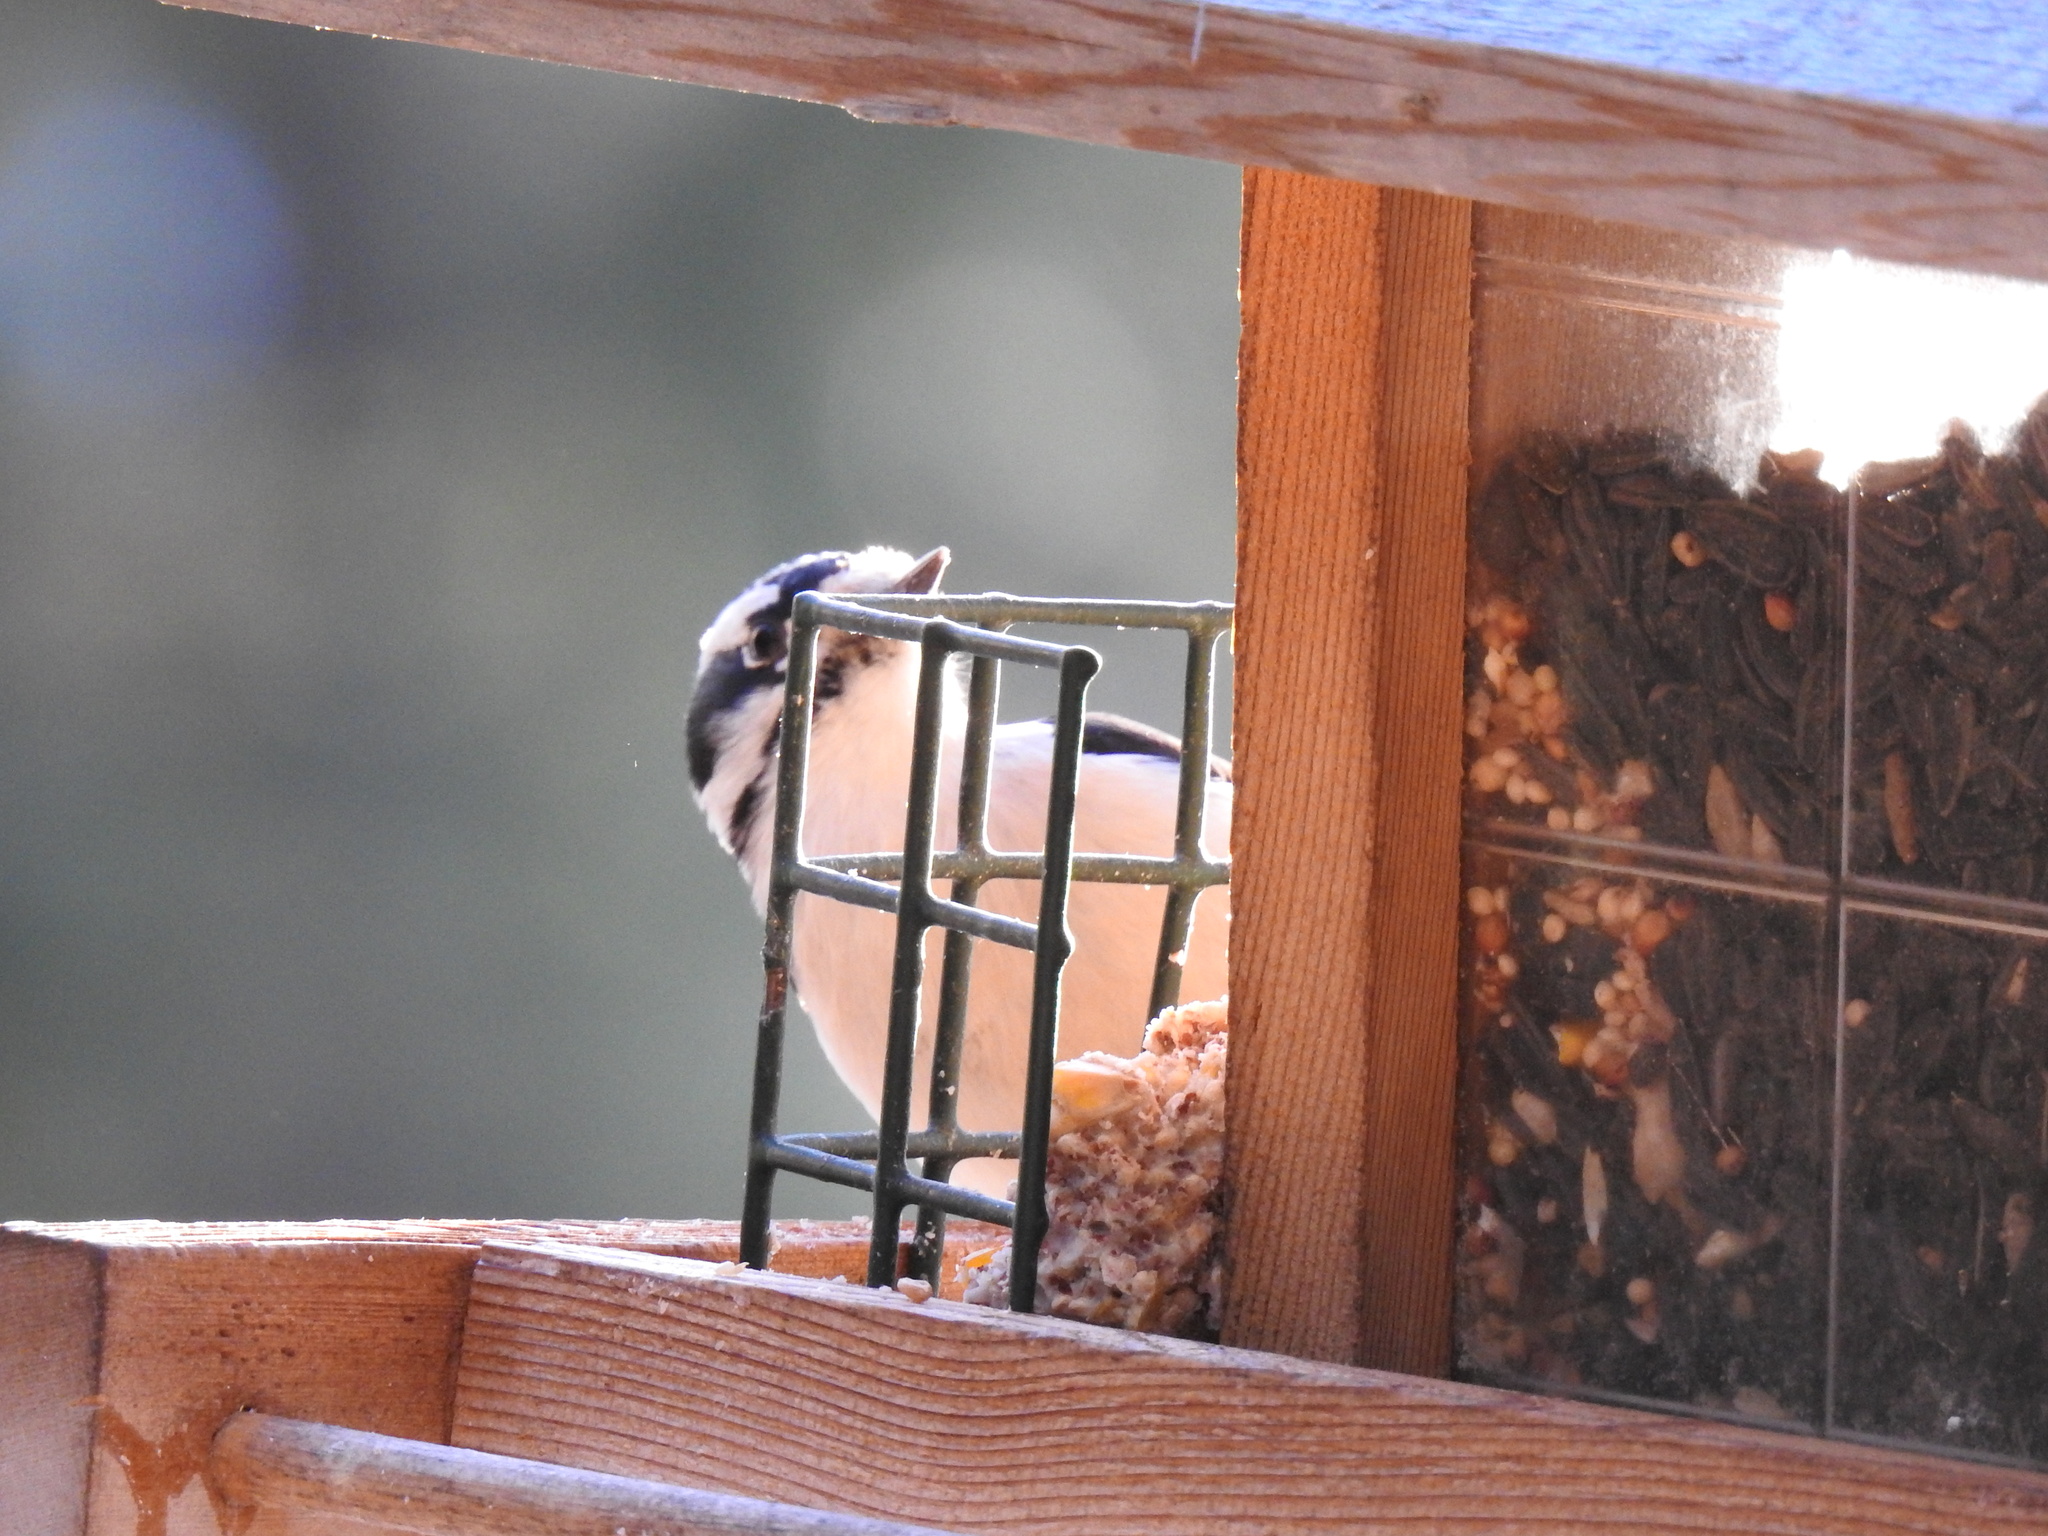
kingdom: Animalia
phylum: Chordata
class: Aves
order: Piciformes
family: Picidae
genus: Dryobates
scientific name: Dryobates pubescens
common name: Downy woodpecker
